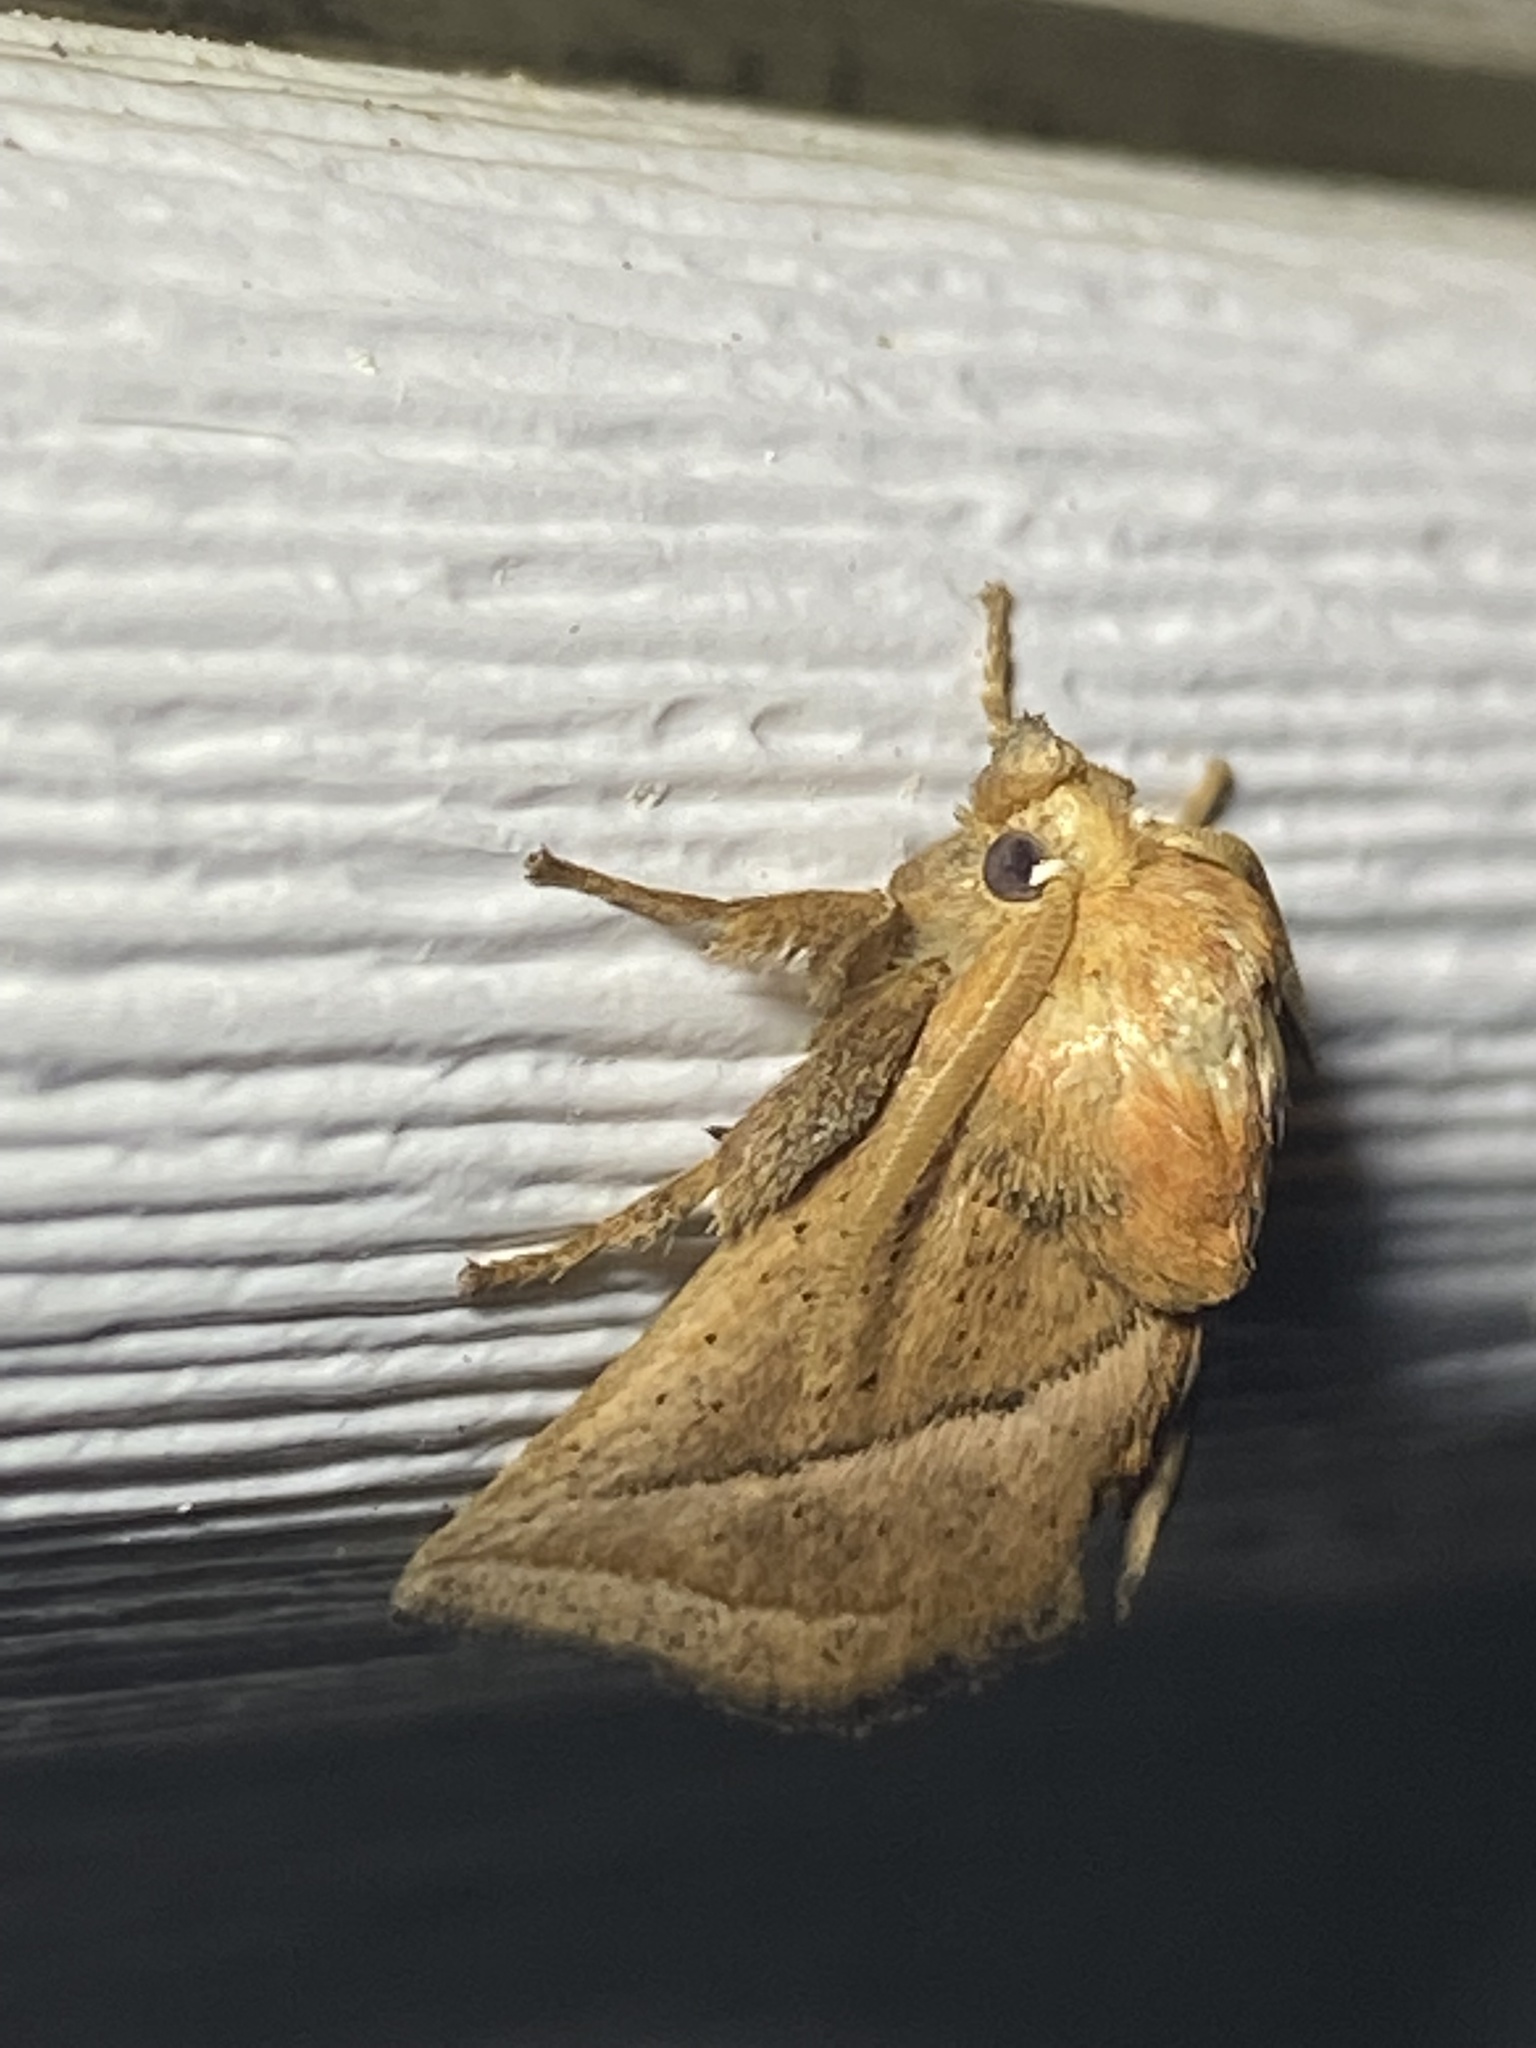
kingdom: Animalia
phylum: Arthropoda
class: Insecta
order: Lepidoptera
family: Limacodidae
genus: Natada
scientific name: Natada nasoni
